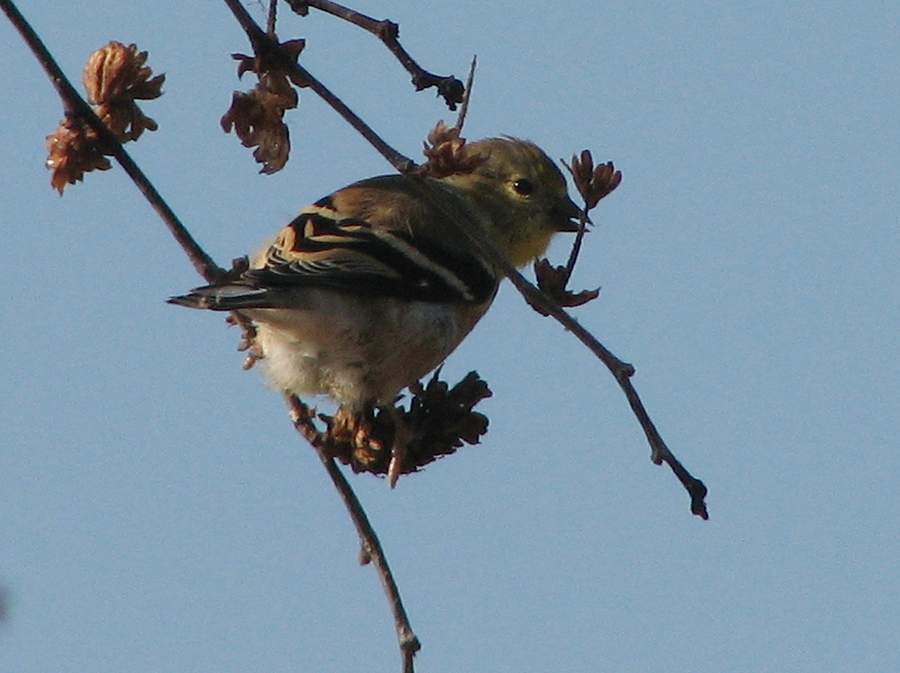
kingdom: Animalia
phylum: Chordata
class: Aves
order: Passeriformes
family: Fringillidae
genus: Spinus
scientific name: Spinus tristis
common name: American goldfinch
